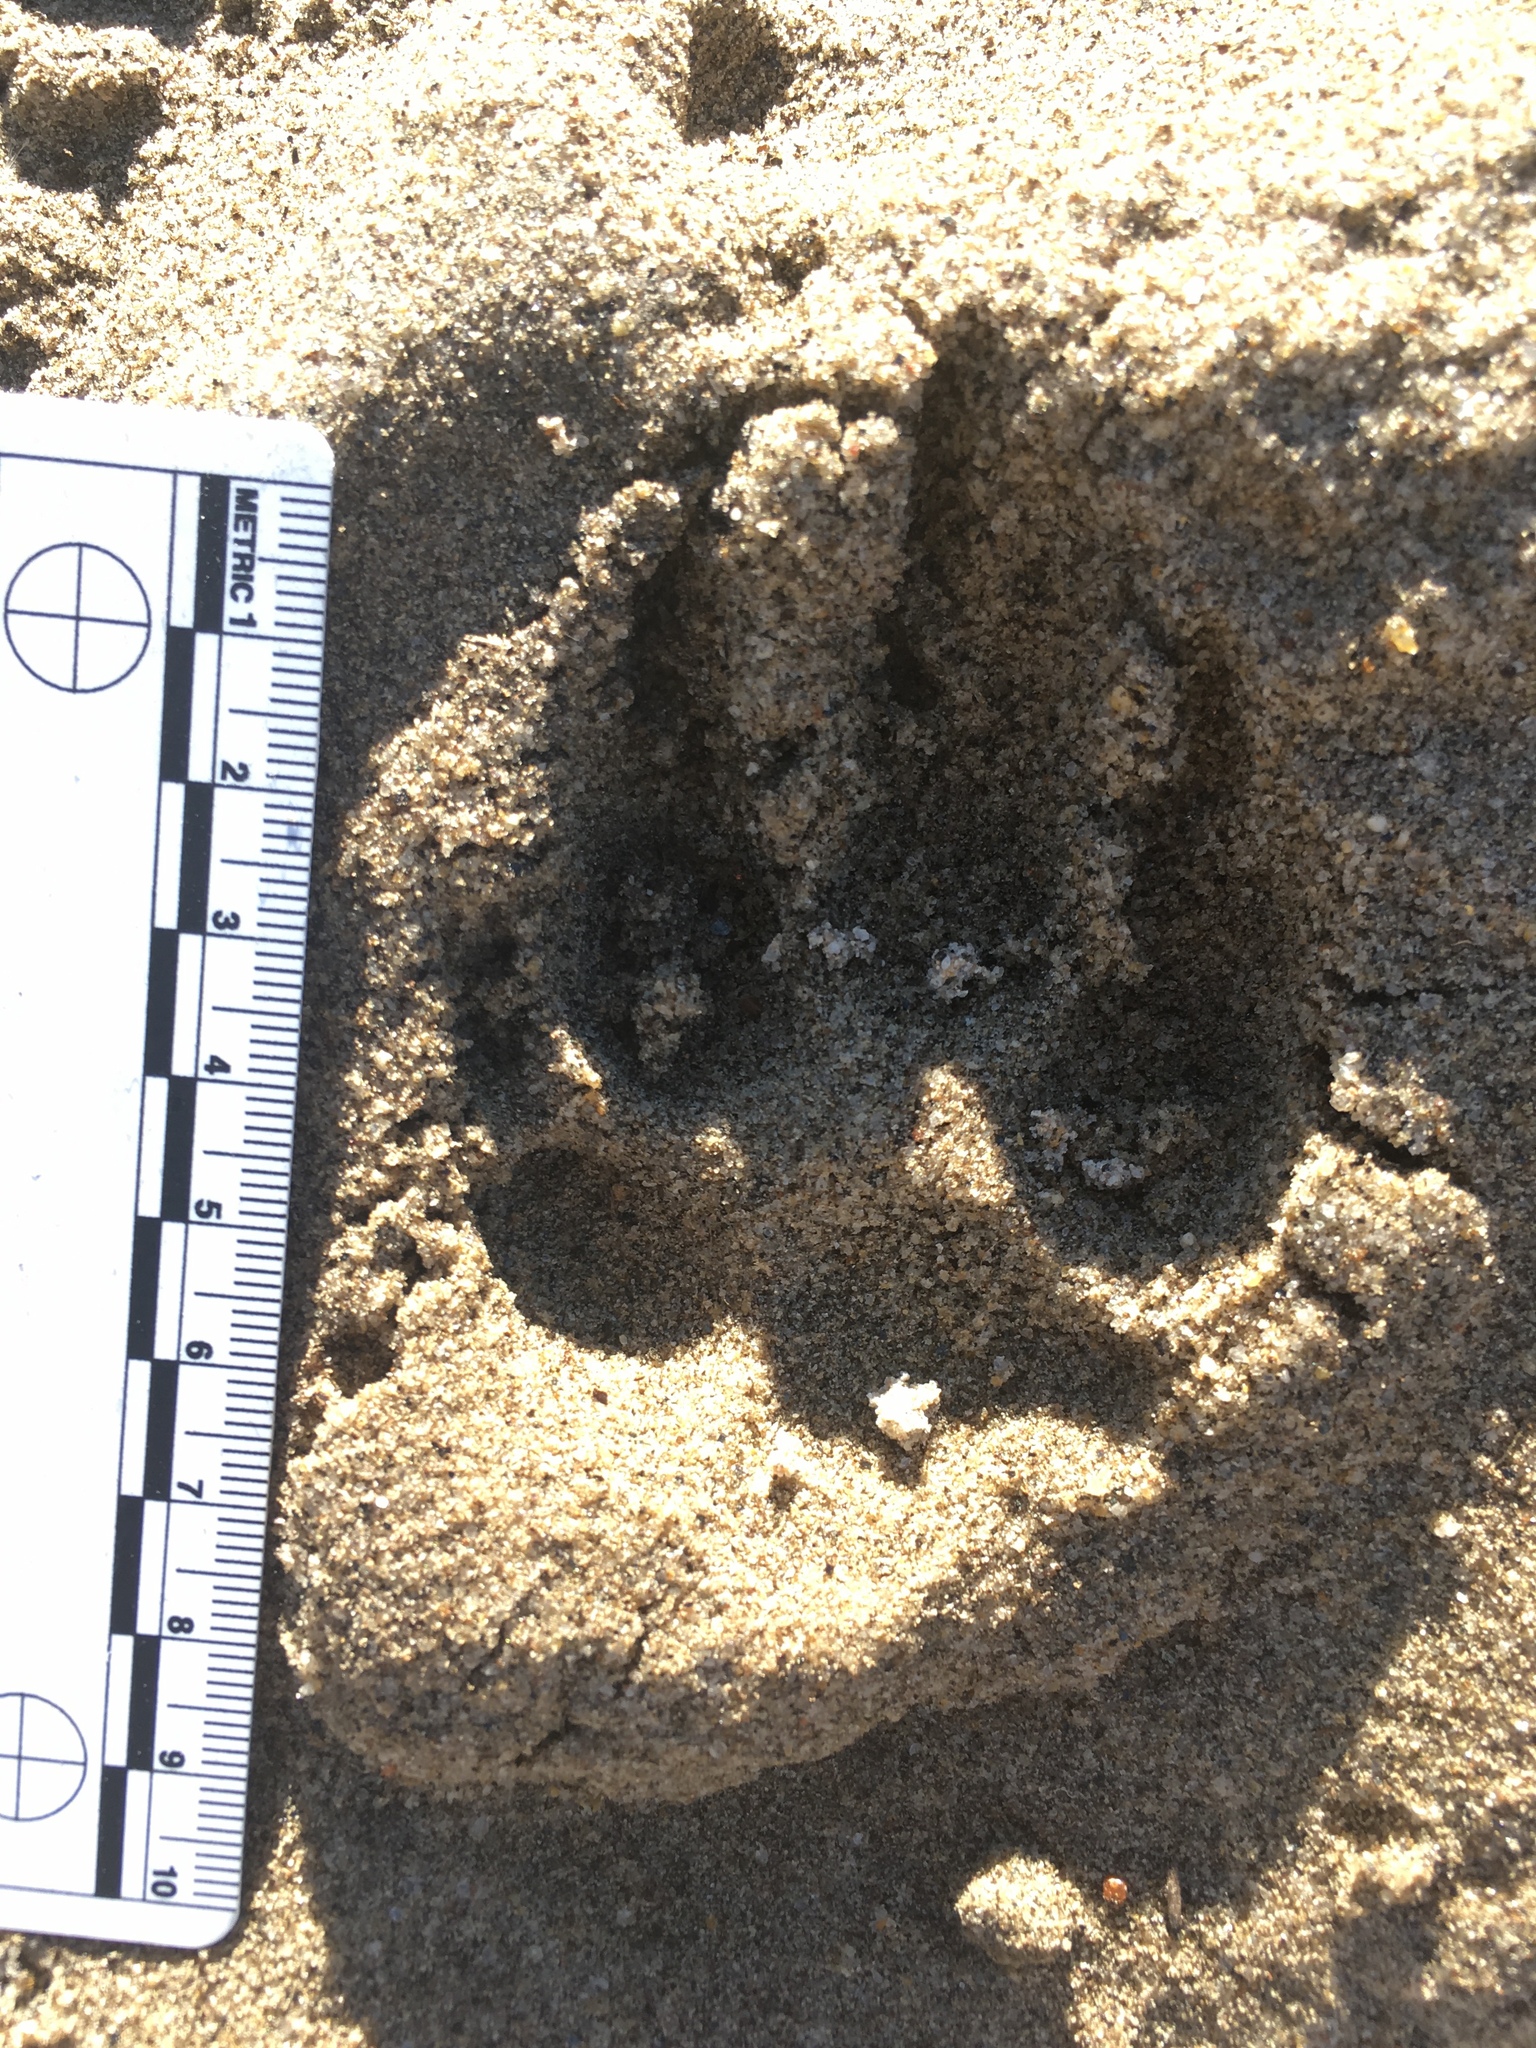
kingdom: Animalia
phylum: Chordata
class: Mammalia
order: Carnivora
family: Canidae
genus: Canis
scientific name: Canis latrans
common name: Coyote
